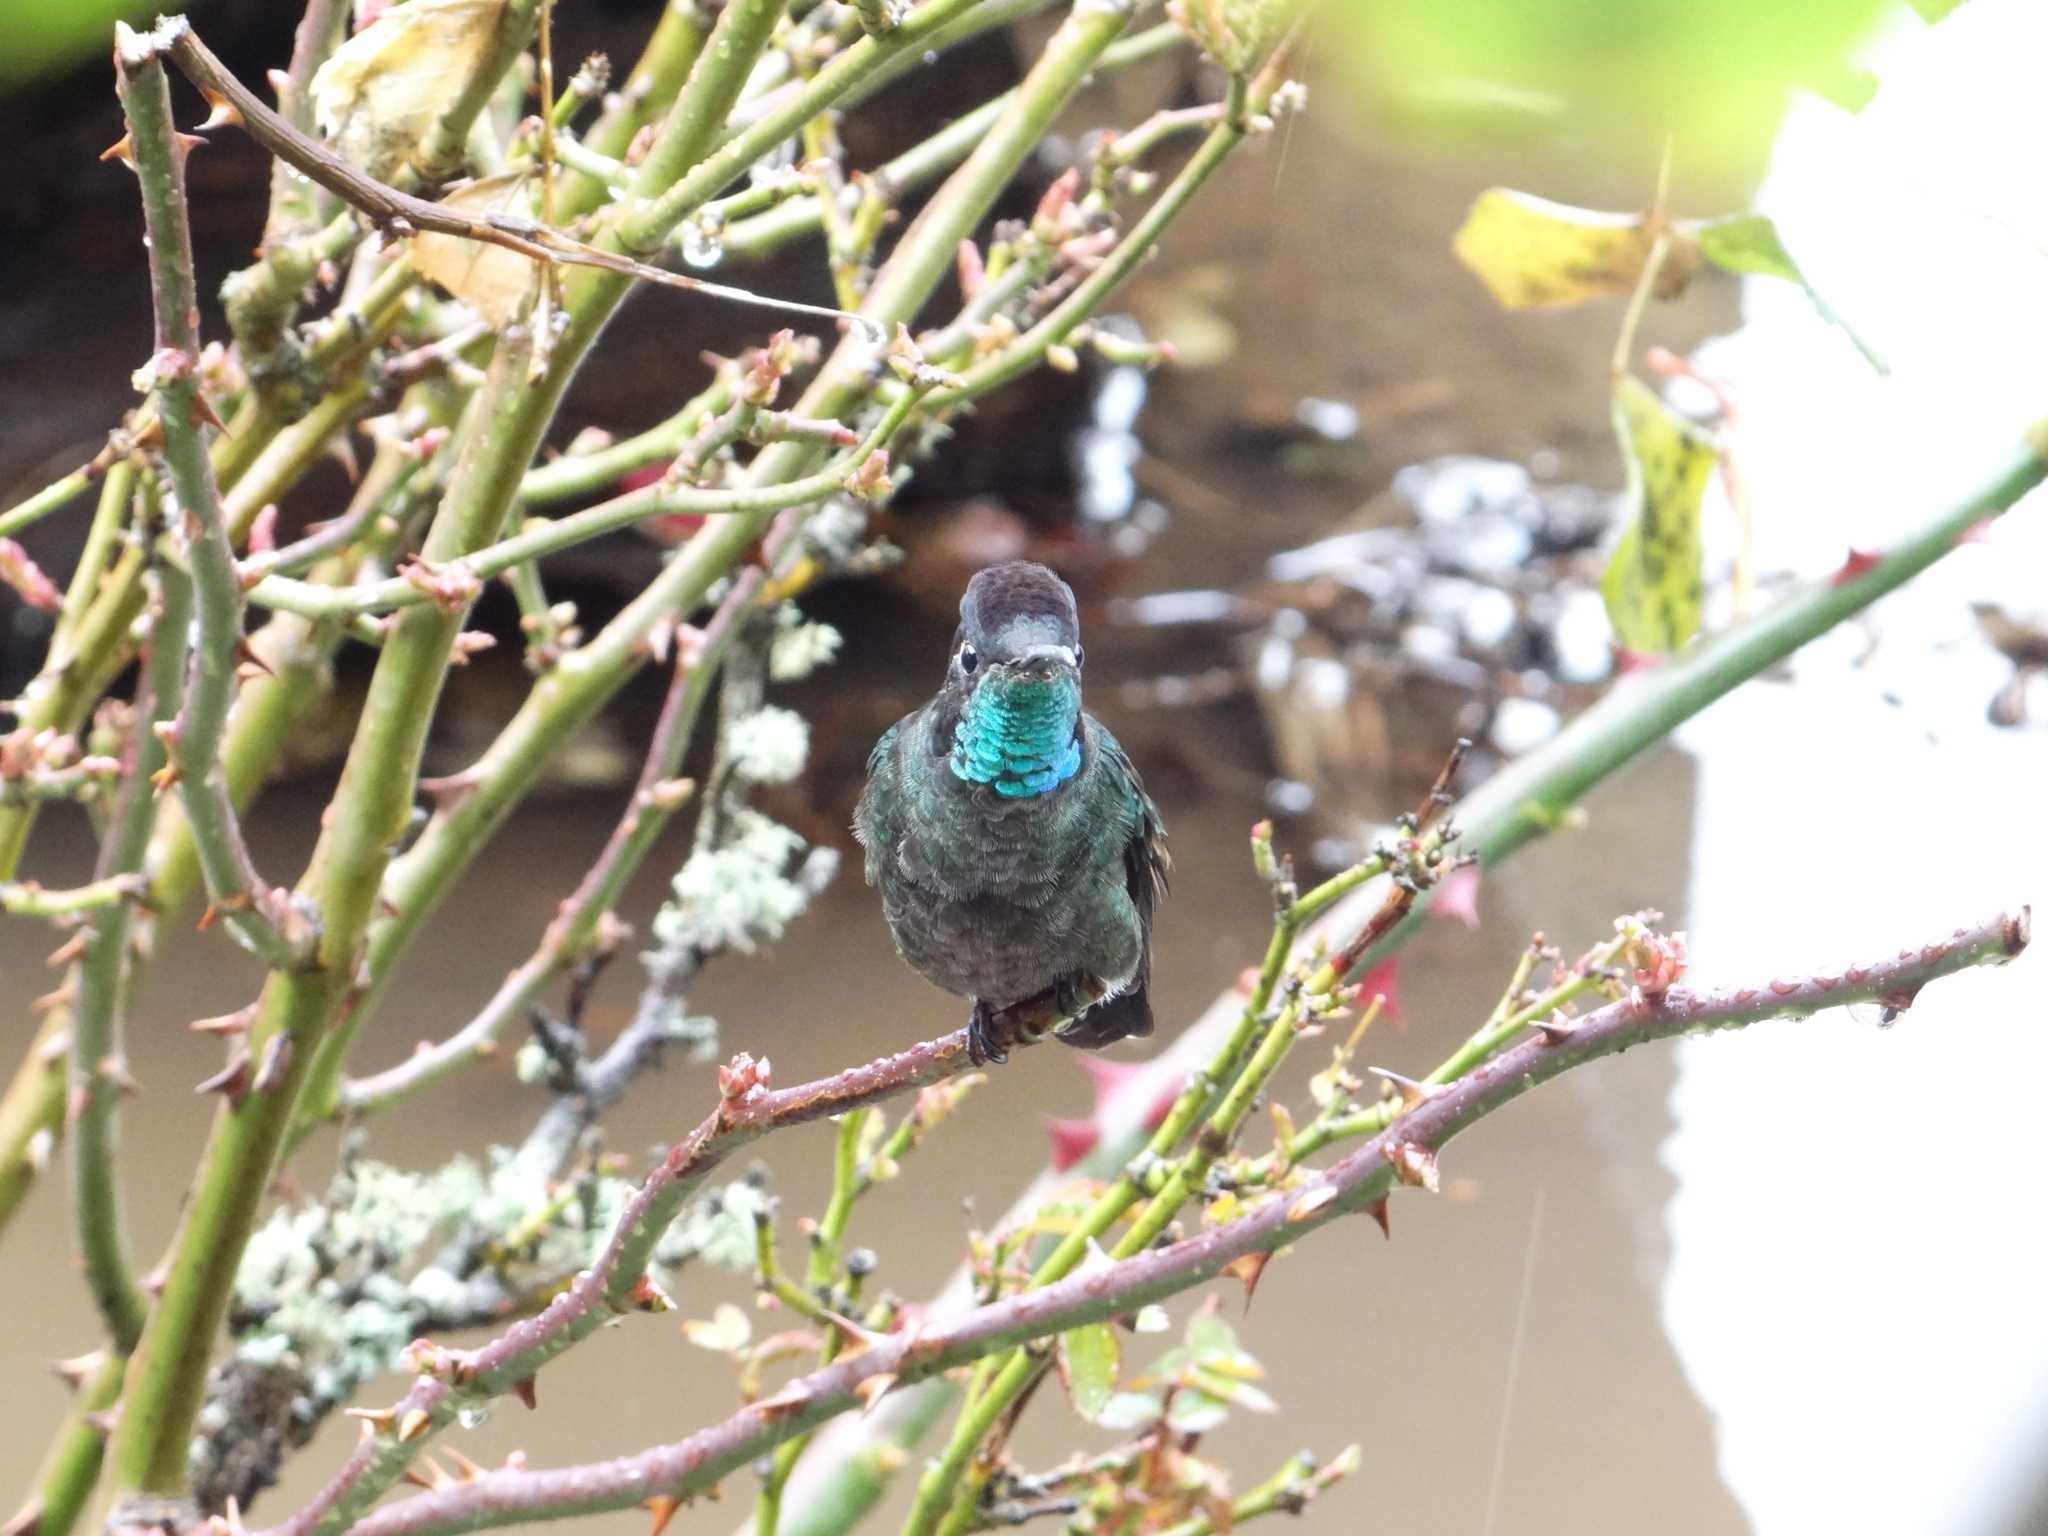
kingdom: Animalia
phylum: Chordata
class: Aves
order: Apodiformes
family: Trochilidae
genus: Eugenes
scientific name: Eugenes spectabilis
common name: Talamanca hummingbird
